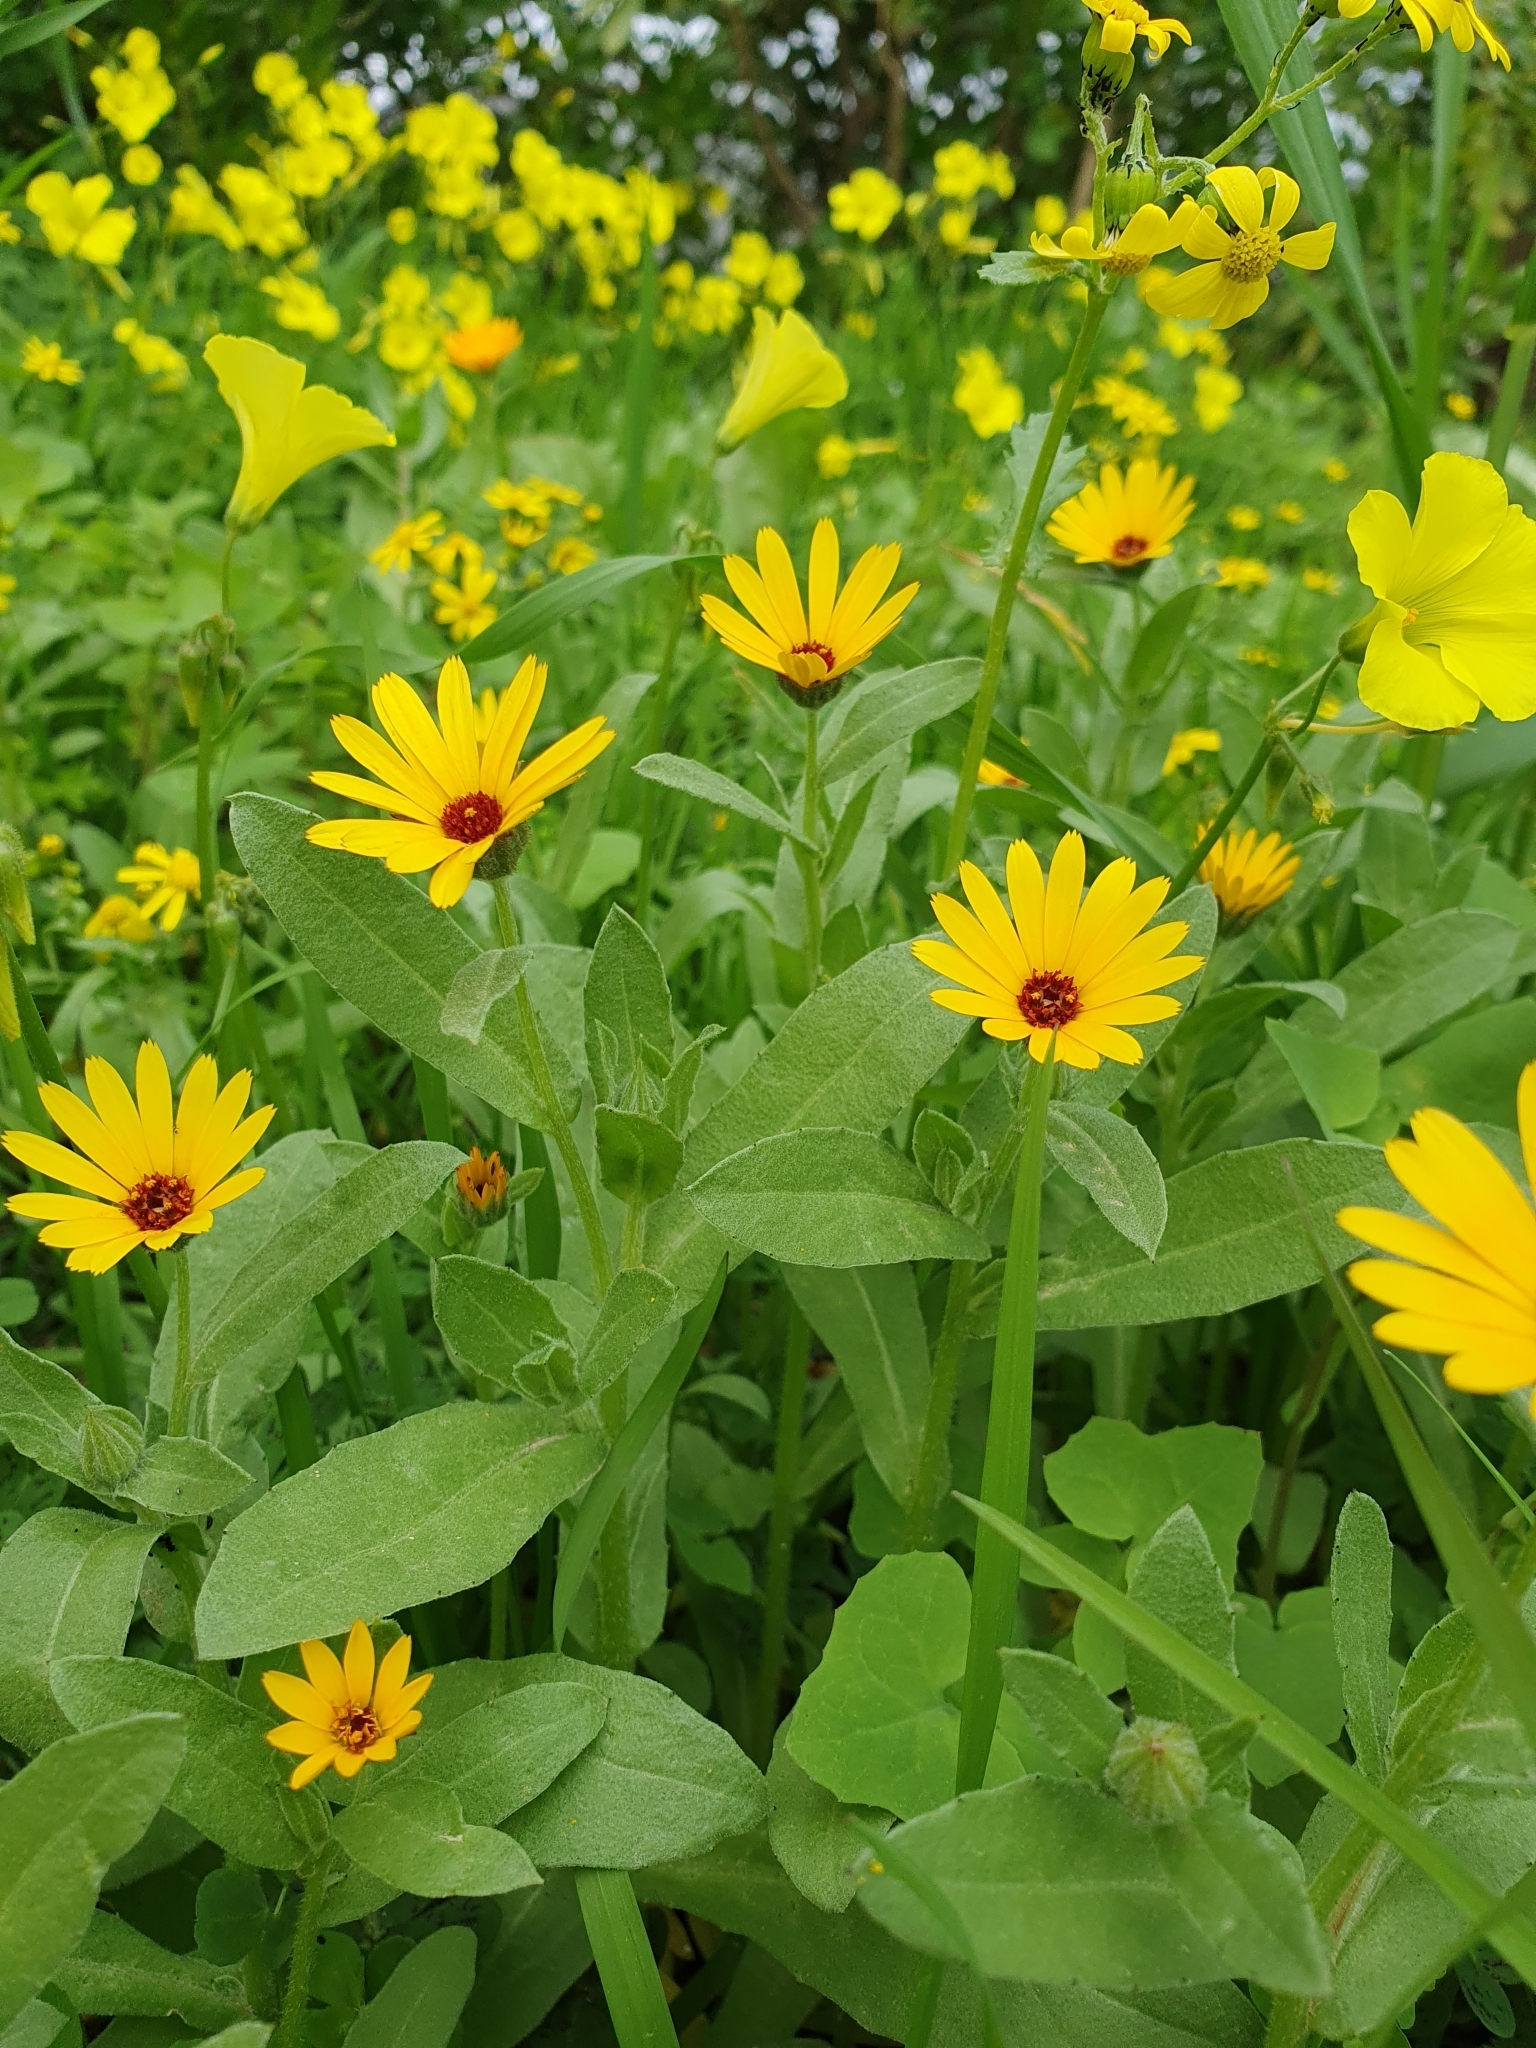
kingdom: Plantae
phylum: Tracheophyta
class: Magnoliopsida
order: Asterales
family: Asteraceae
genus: Calendula
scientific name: Calendula arvensis
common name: Field marigold
